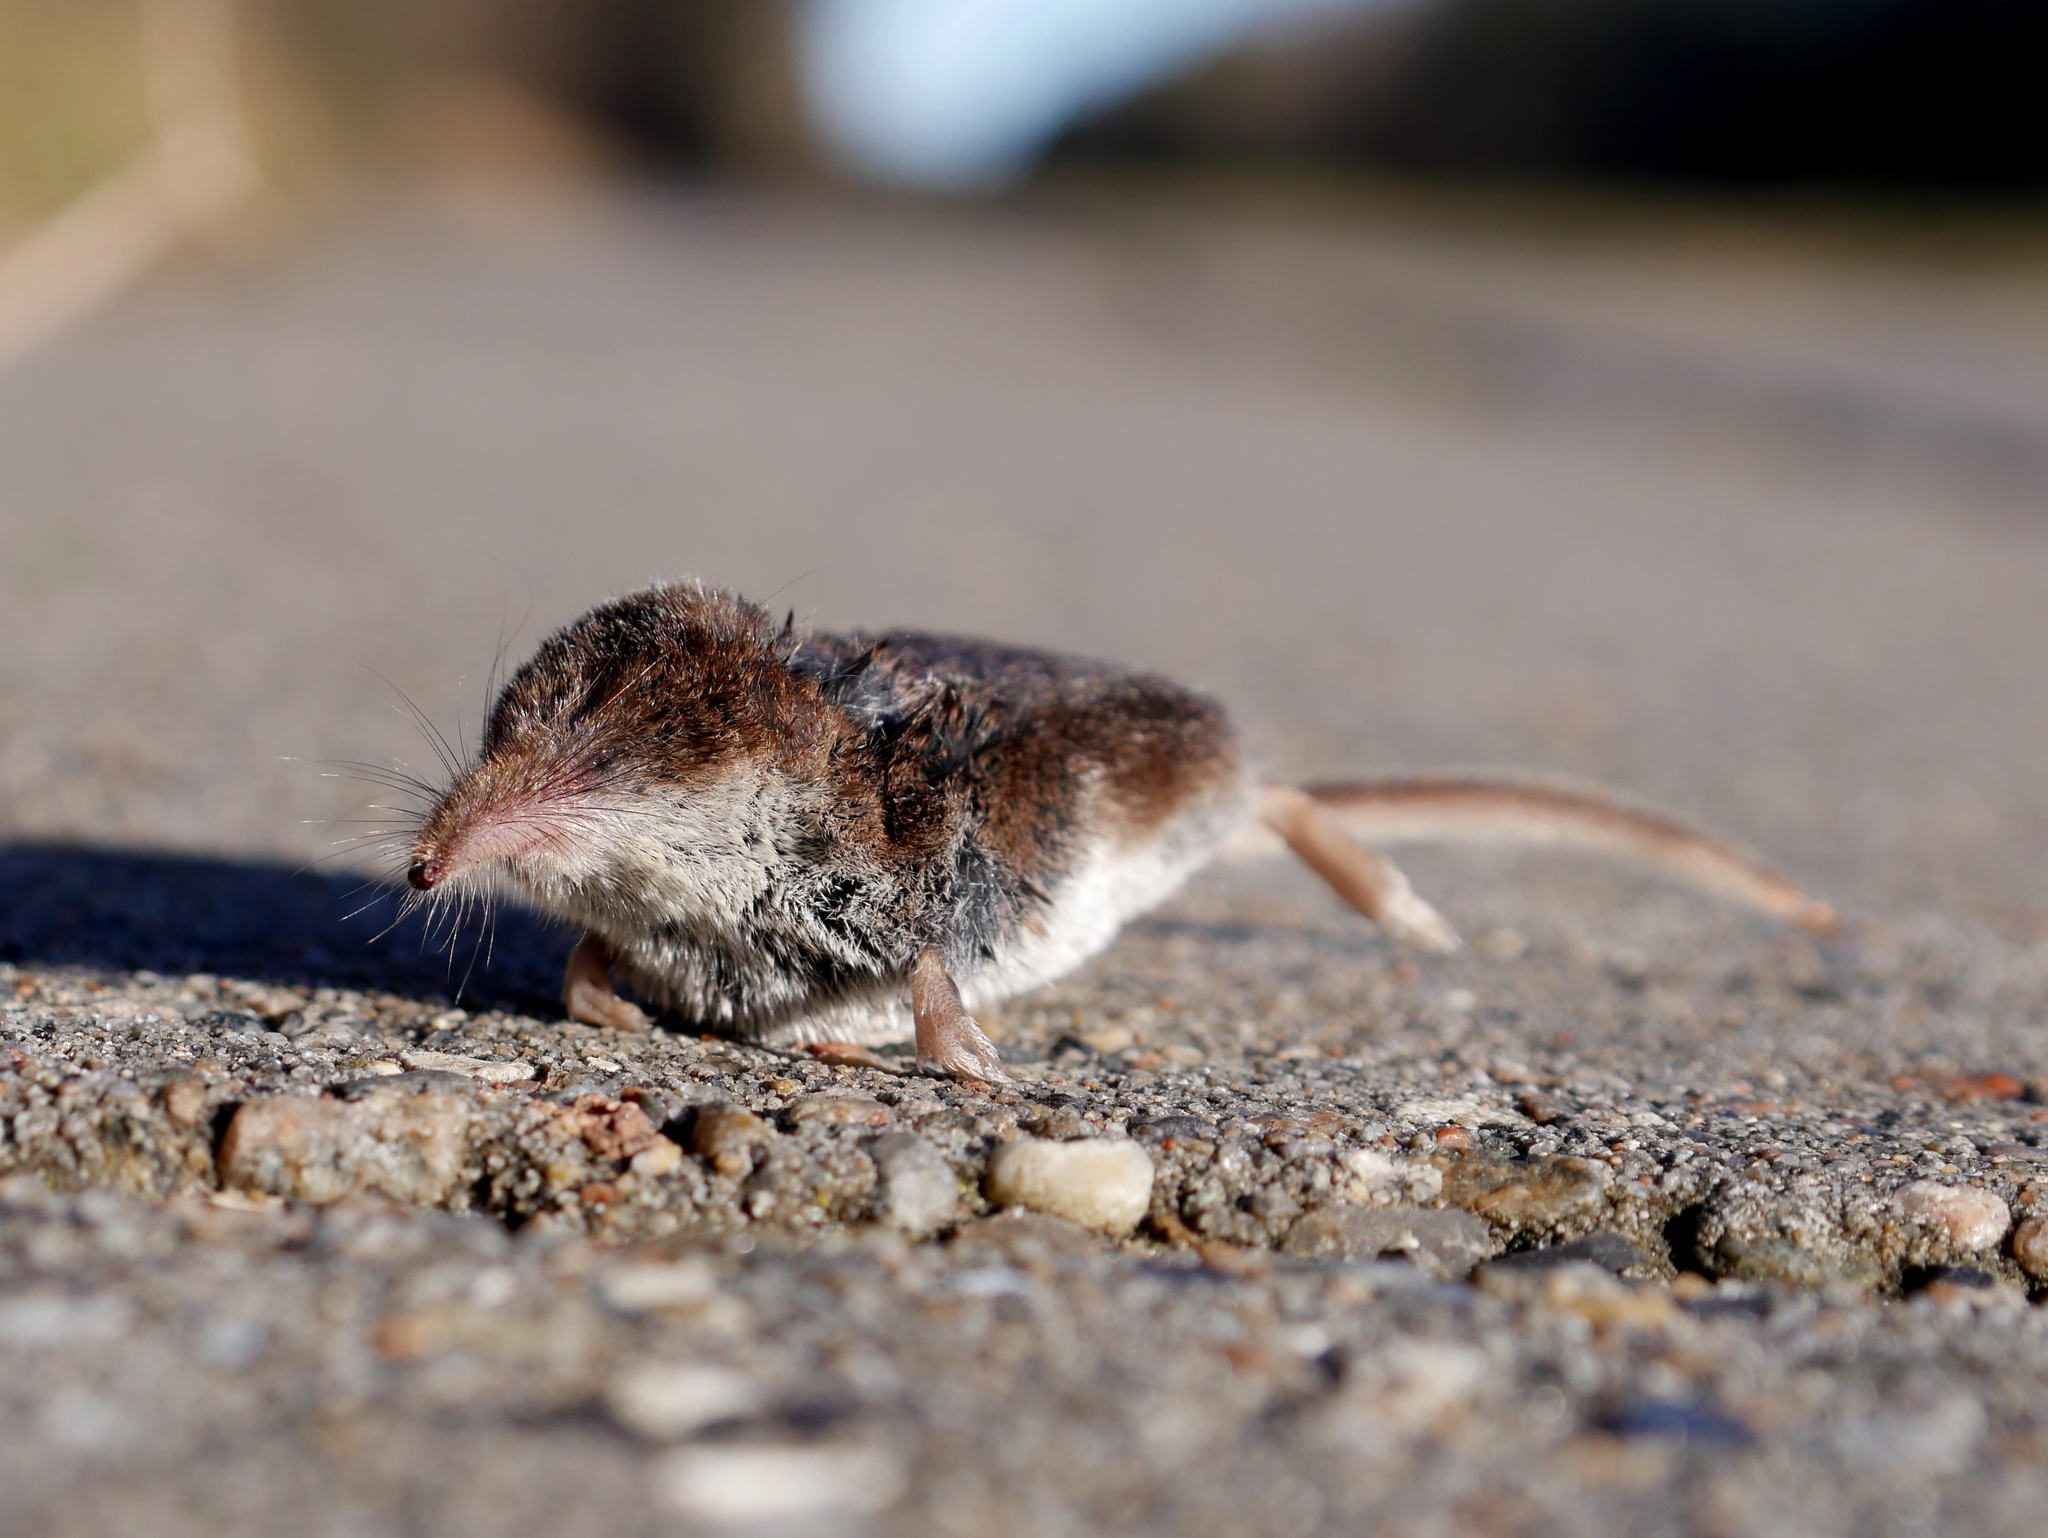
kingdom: Animalia
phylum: Chordata
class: Mammalia
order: Soricomorpha
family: Soricidae
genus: Sorex
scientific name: Sorex araneus
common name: Common shrew
